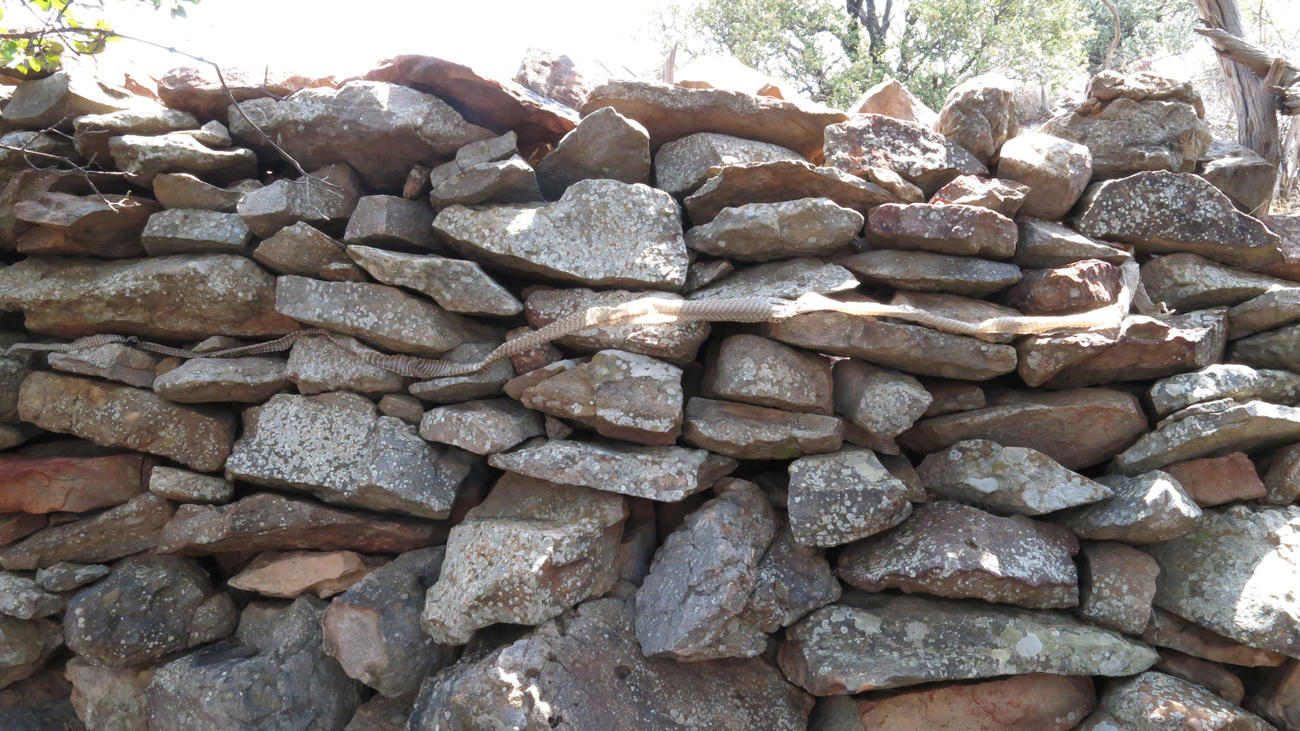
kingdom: Animalia
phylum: Chordata
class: Squamata
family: Elapidae
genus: Dendroaspis
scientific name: Dendroaspis polylepis
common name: Black mamba
